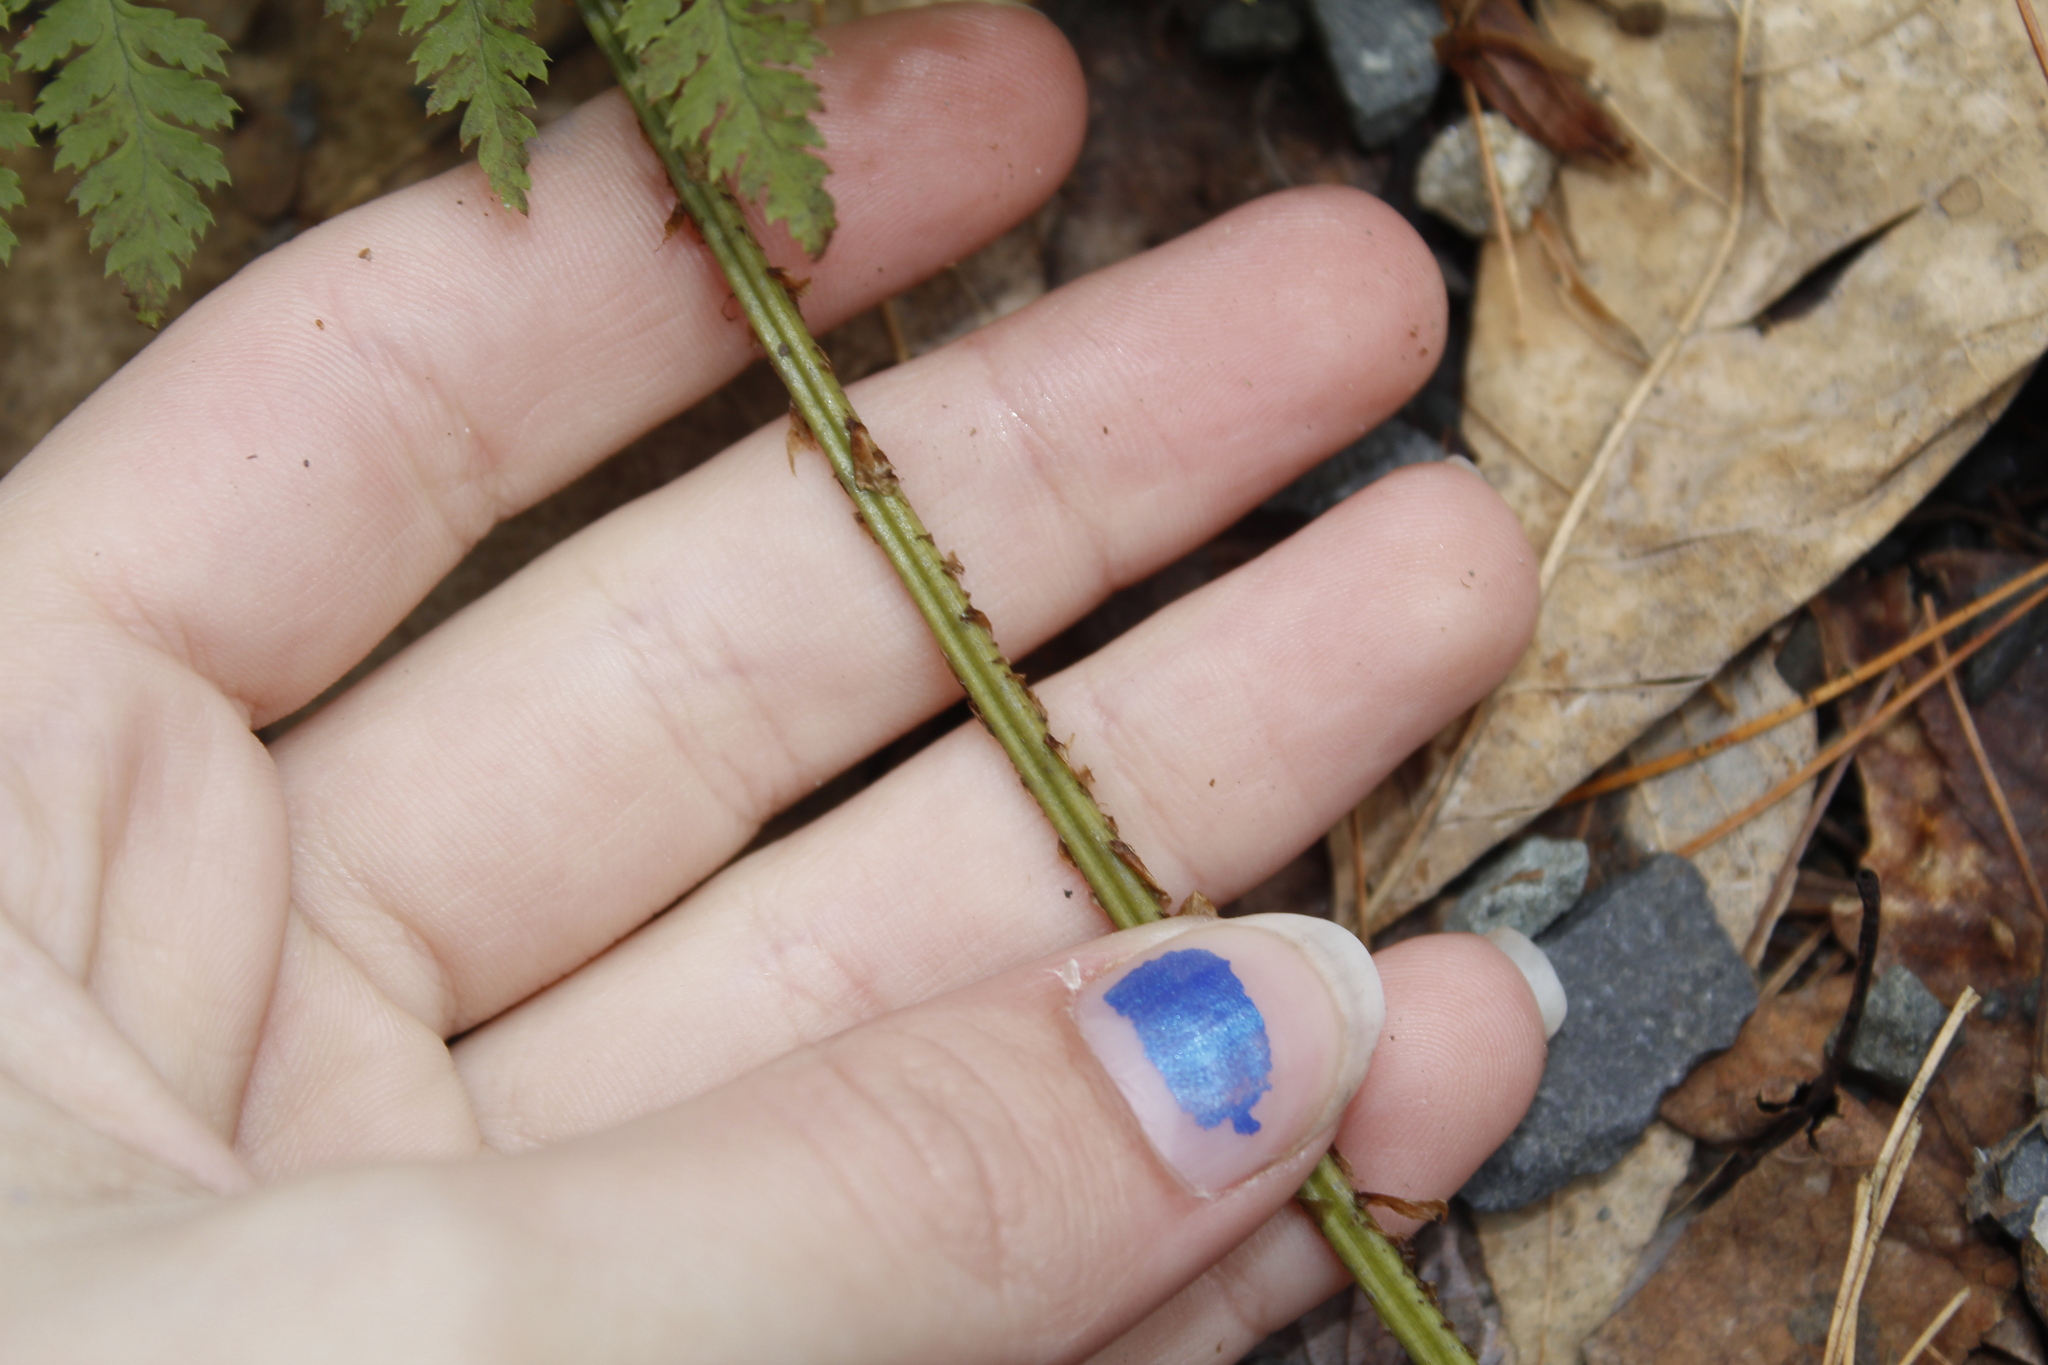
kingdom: Plantae
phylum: Tracheophyta
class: Polypodiopsida
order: Polypodiales
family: Dryopteridaceae
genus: Dryopteris
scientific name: Dryopteris intermedia
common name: Evergreen wood fern
